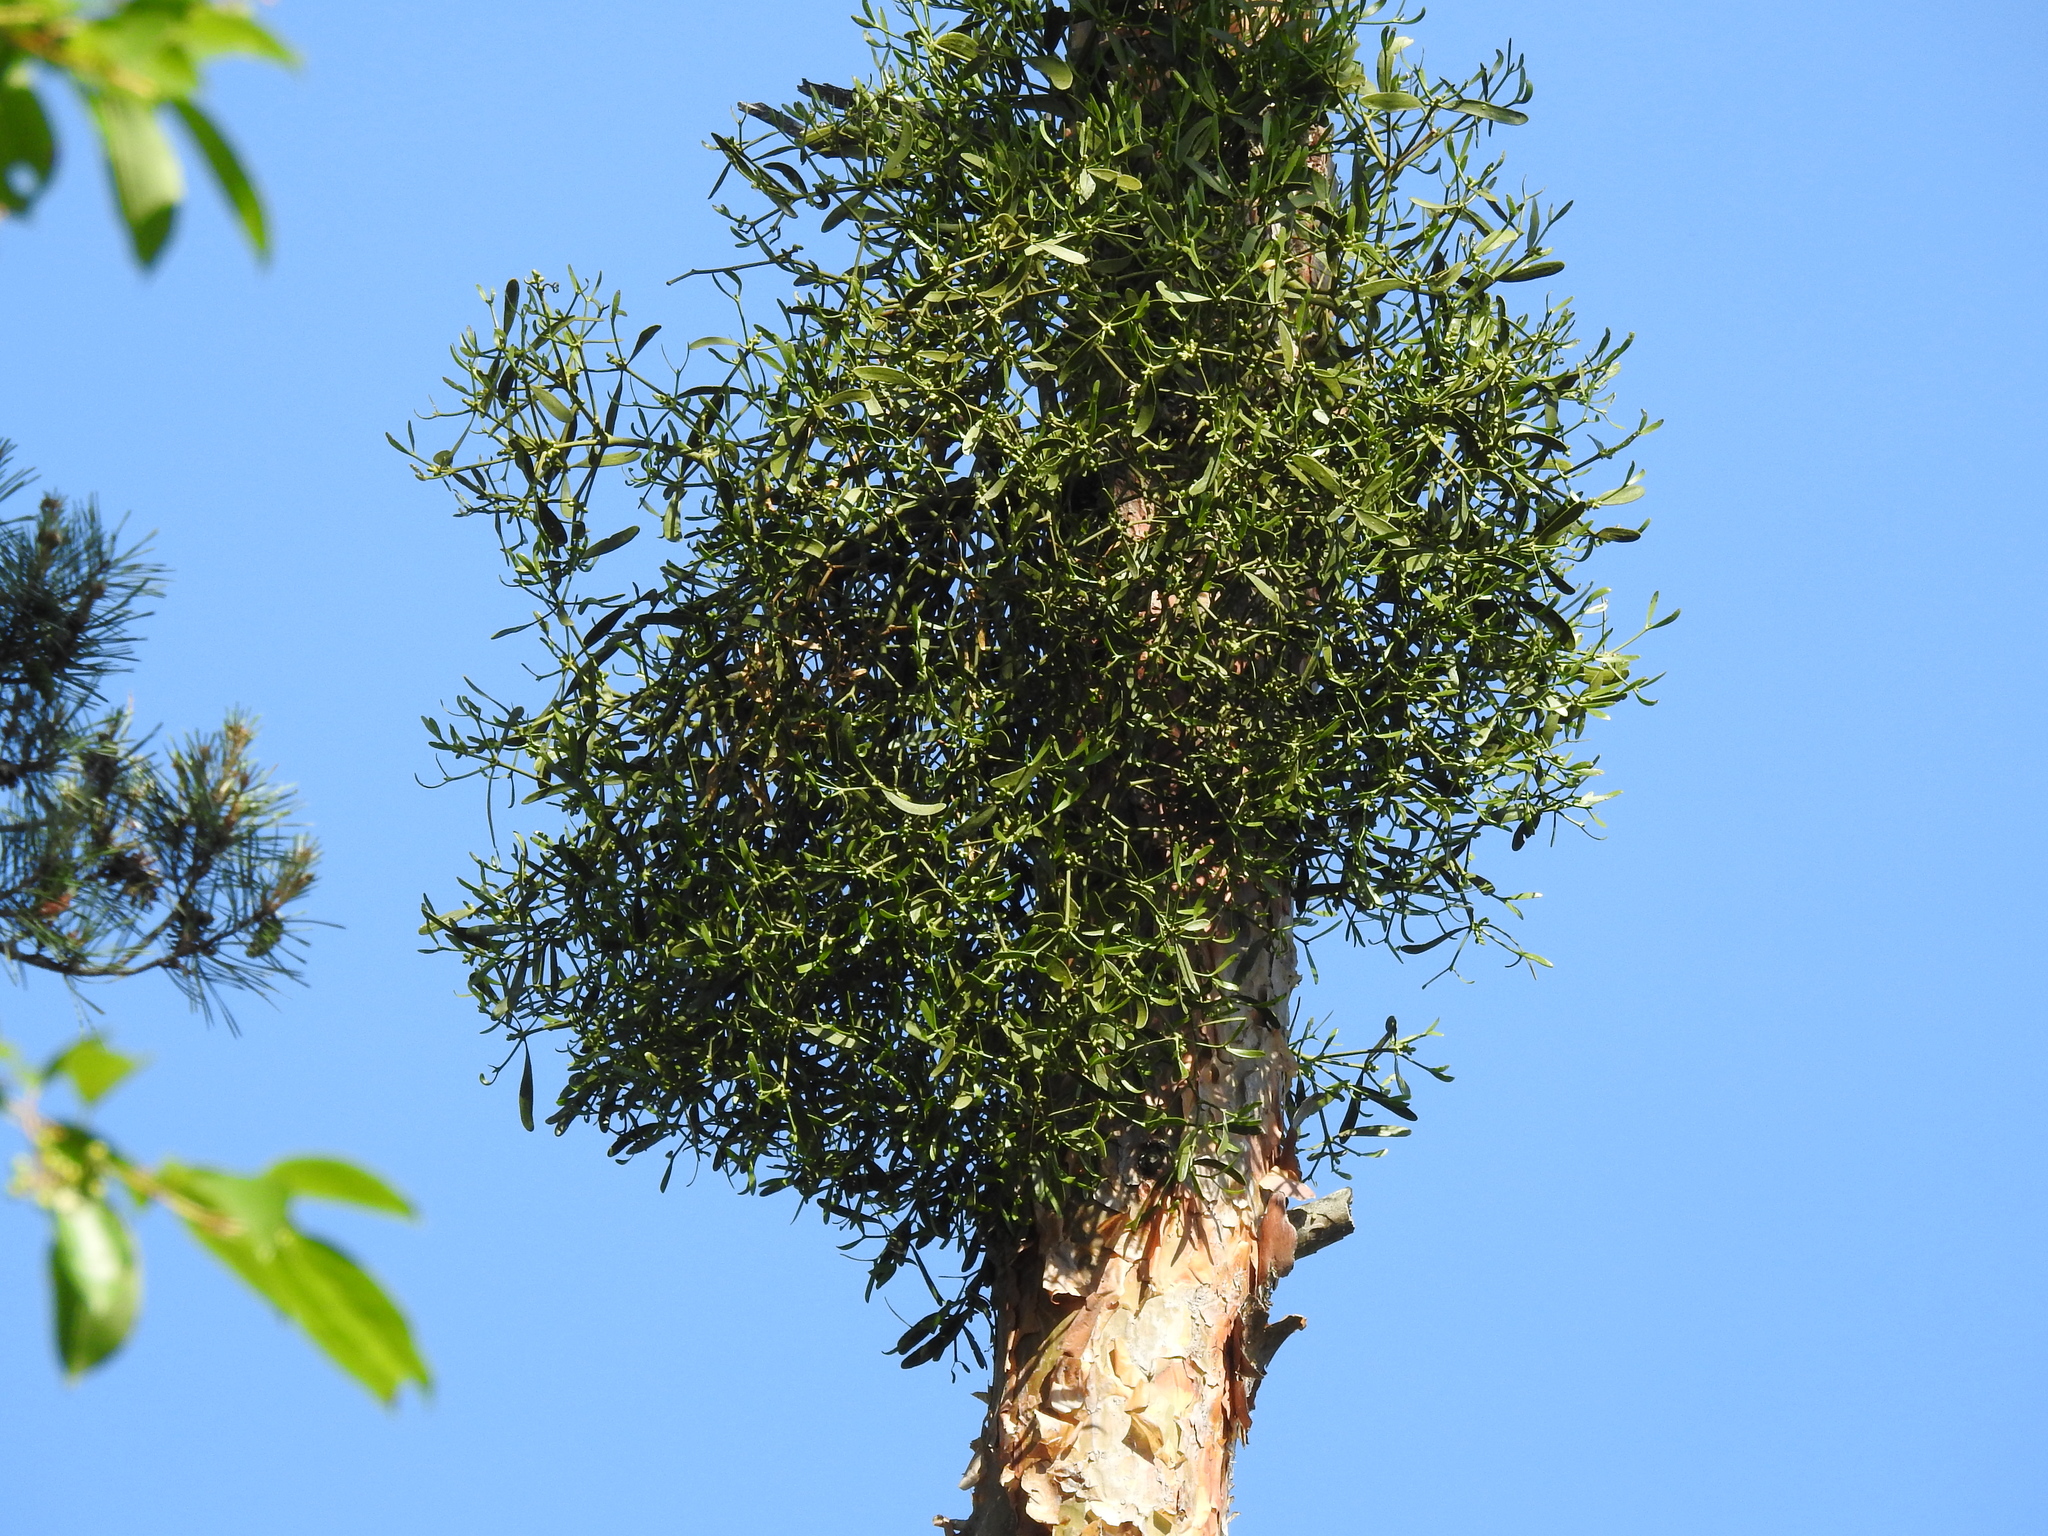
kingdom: Plantae
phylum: Tracheophyta
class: Magnoliopsida
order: Santalales
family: Viscaceae
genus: Viscum
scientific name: Viscum album
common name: Mistletoe
